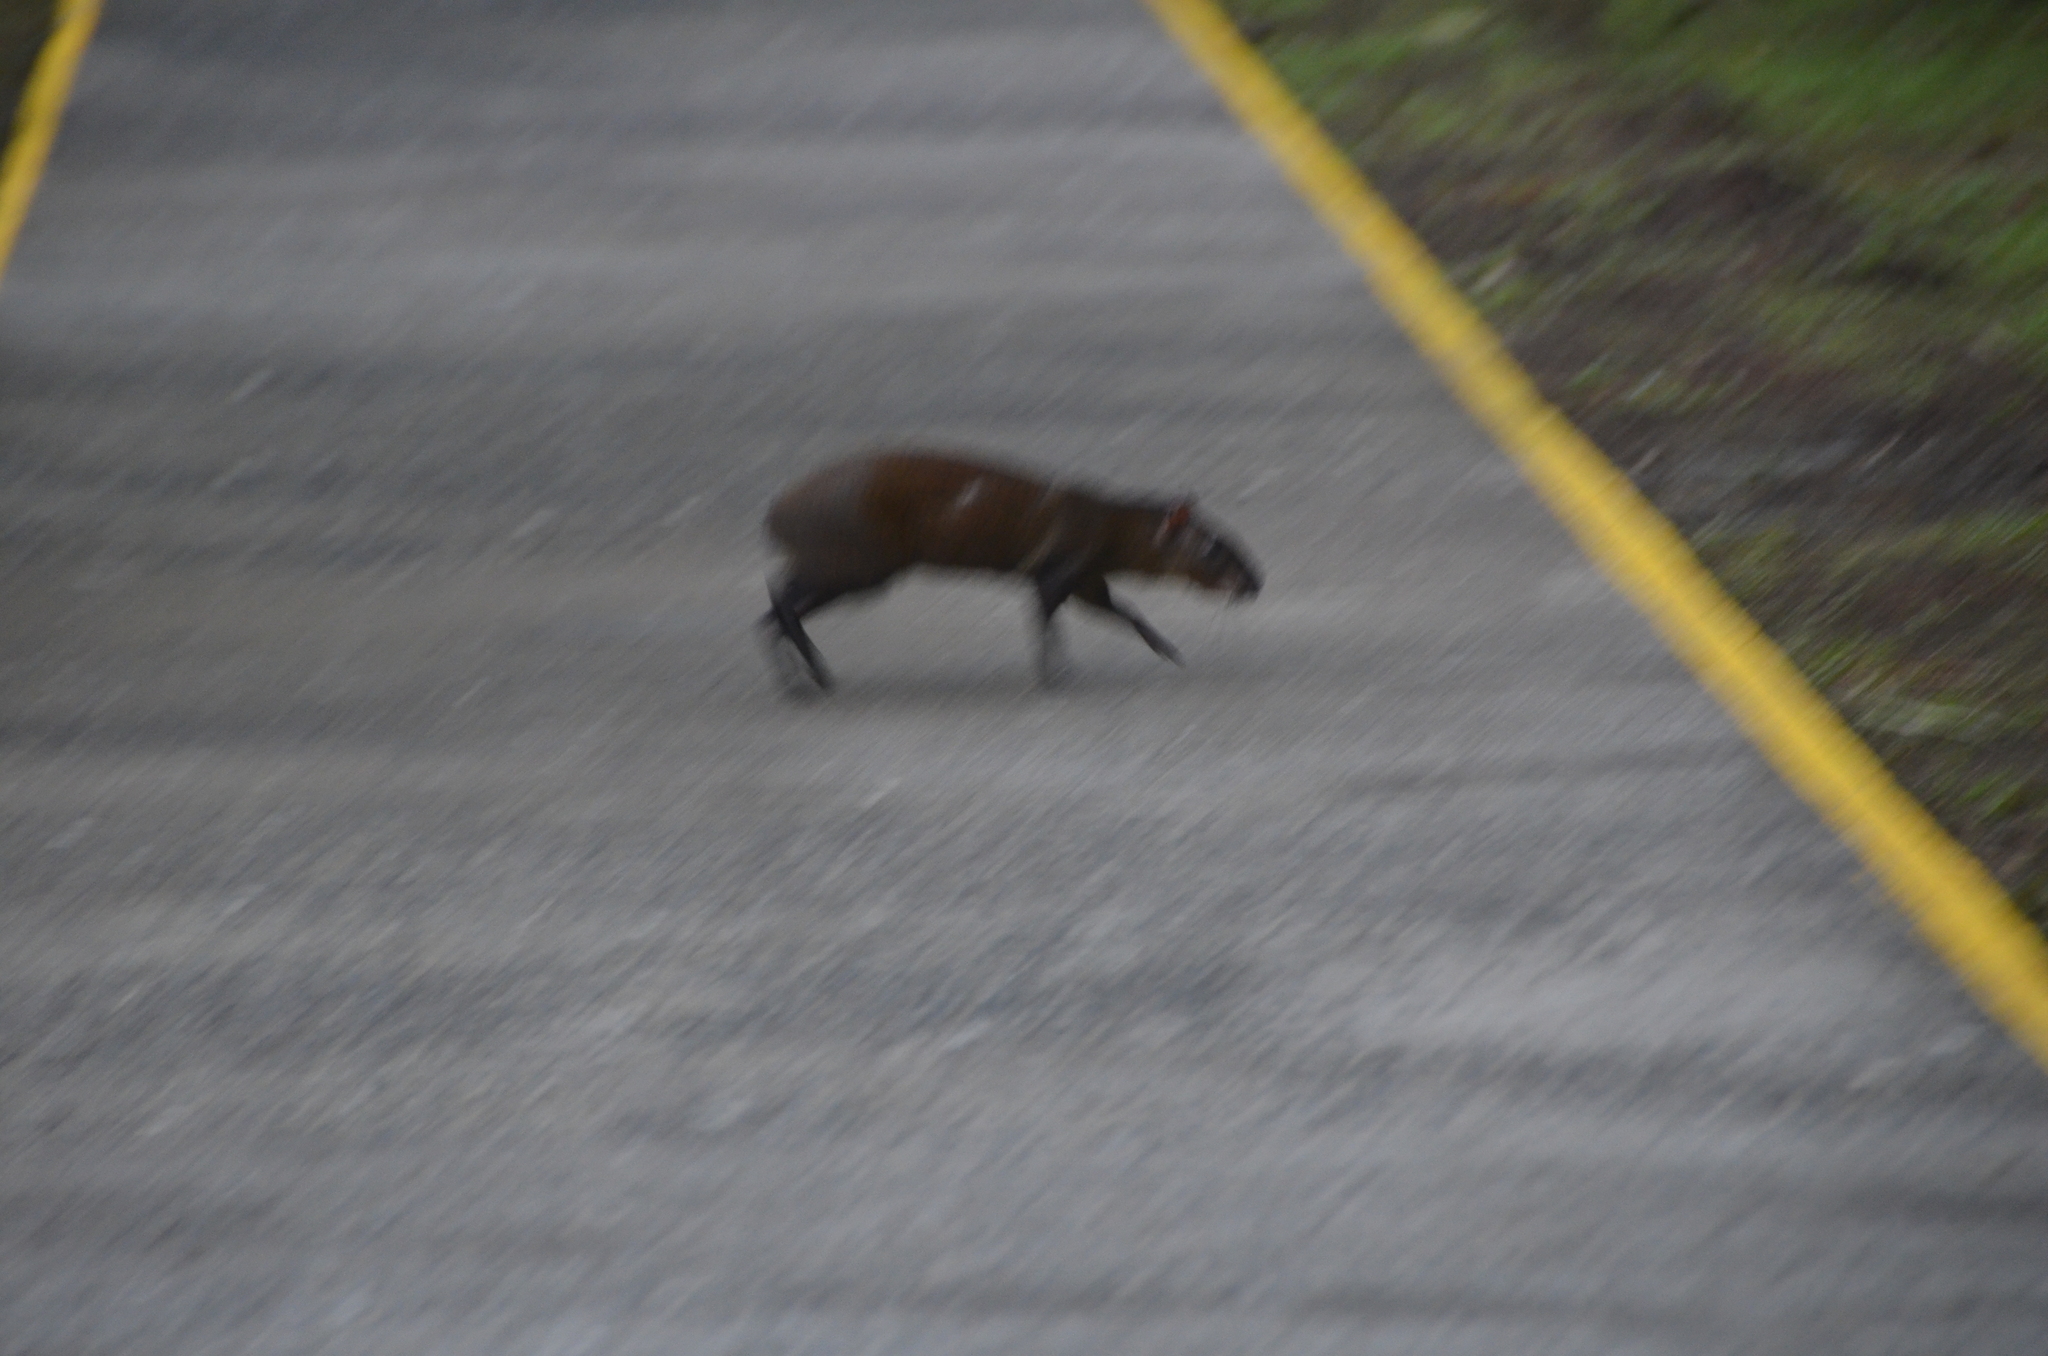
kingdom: Animalia
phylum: Chordata
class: Mammalia
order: Rodentia
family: Dasyproctidae
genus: Dasyprocta
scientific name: Dasyprocta punctata
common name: Central american agouti
